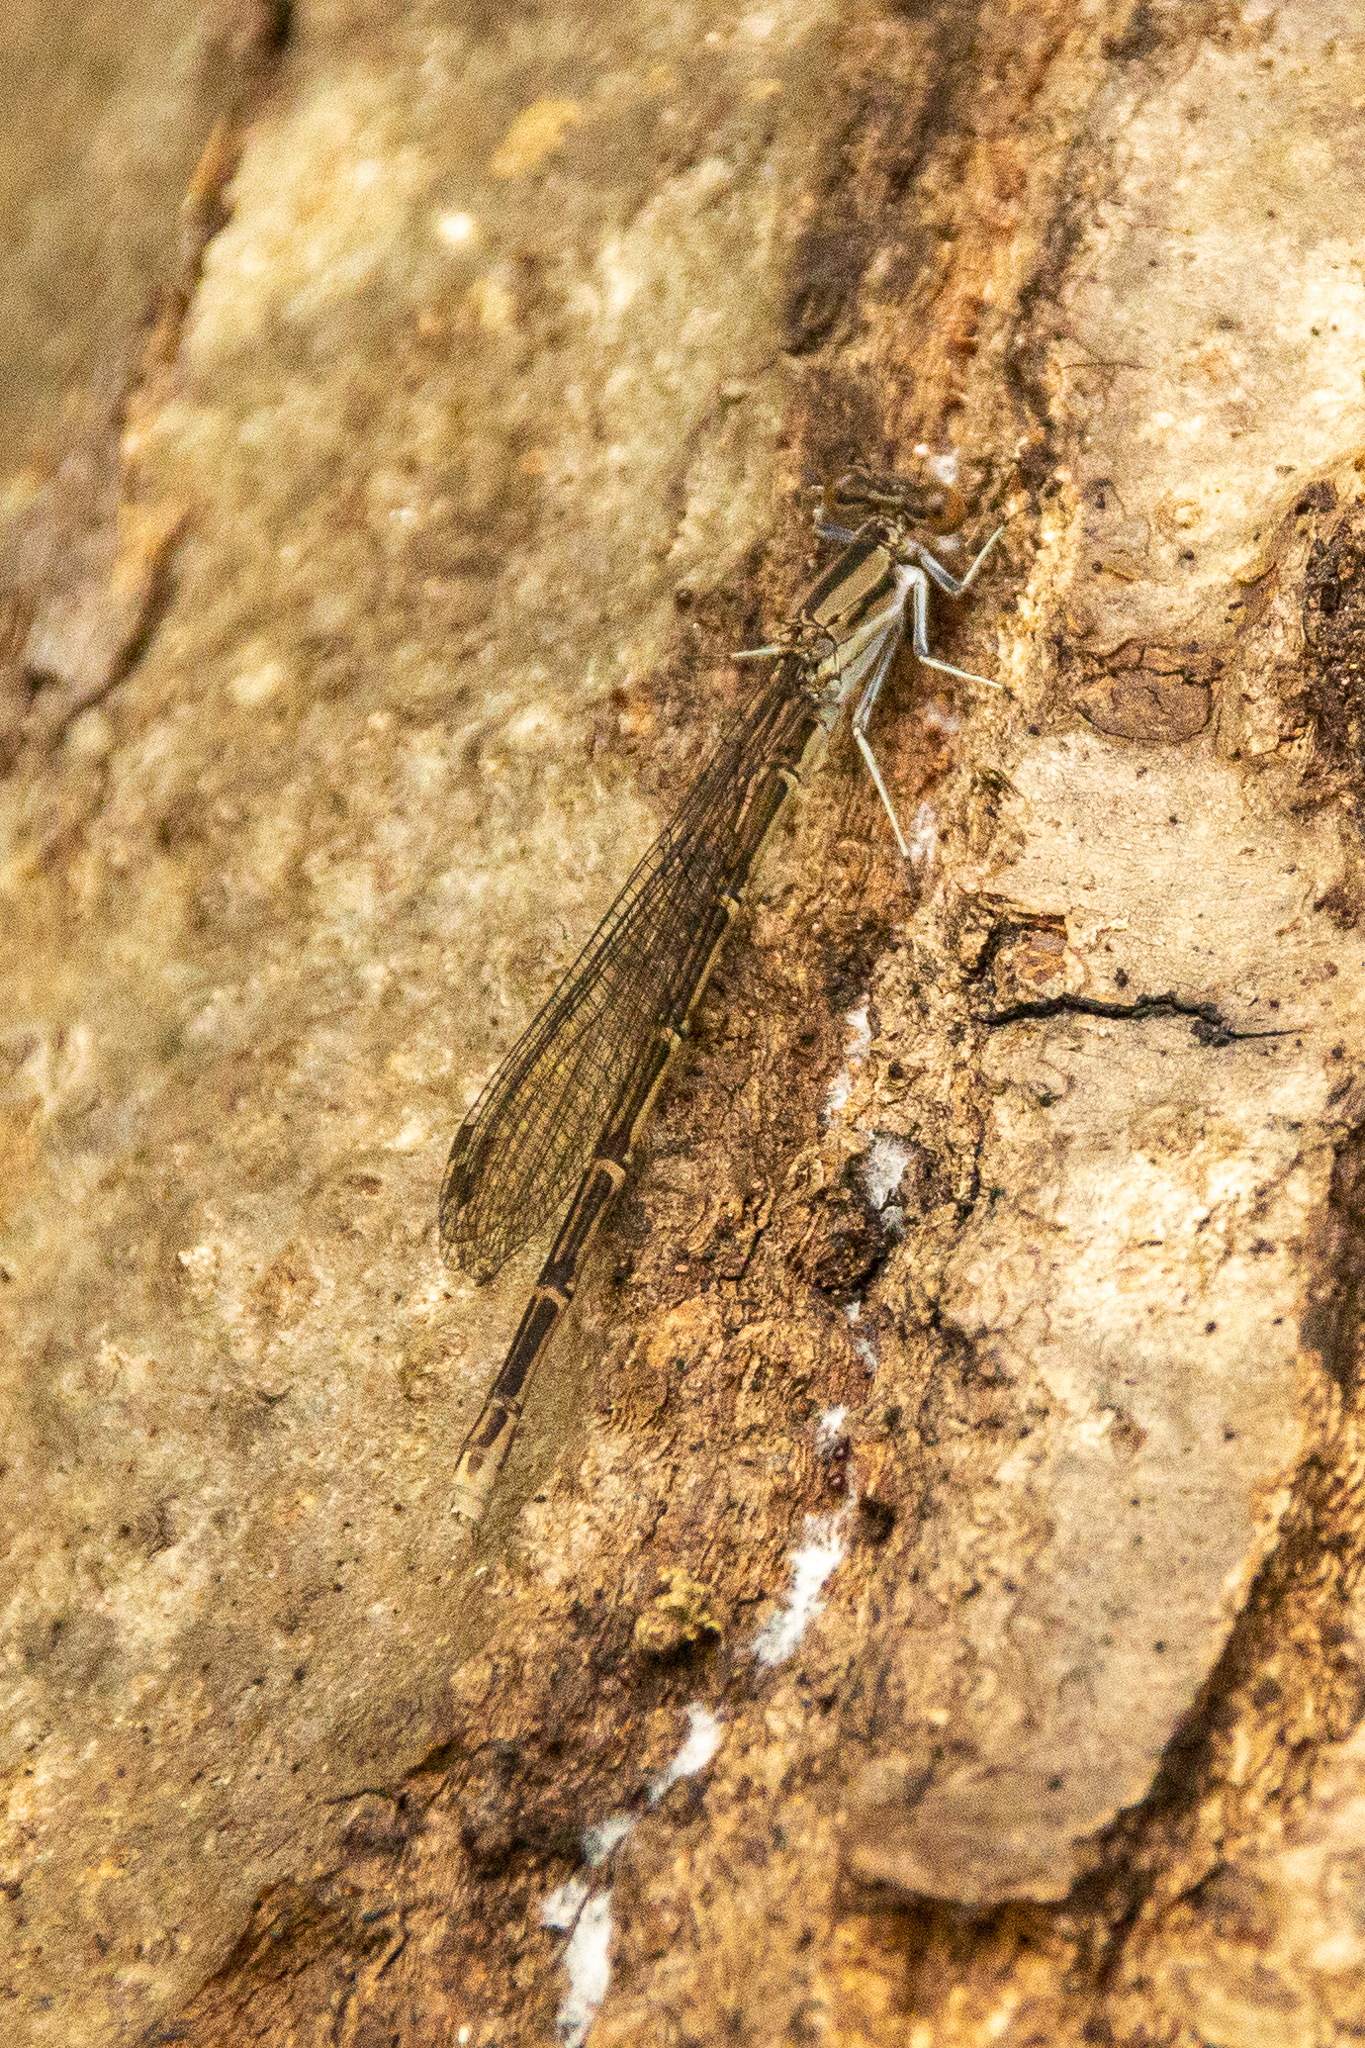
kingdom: Animalia
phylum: Arthropoda
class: Insecta
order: Odonata
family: Coenagrionidae
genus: Argia
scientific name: Argia fumipennis
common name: Variable dancer
